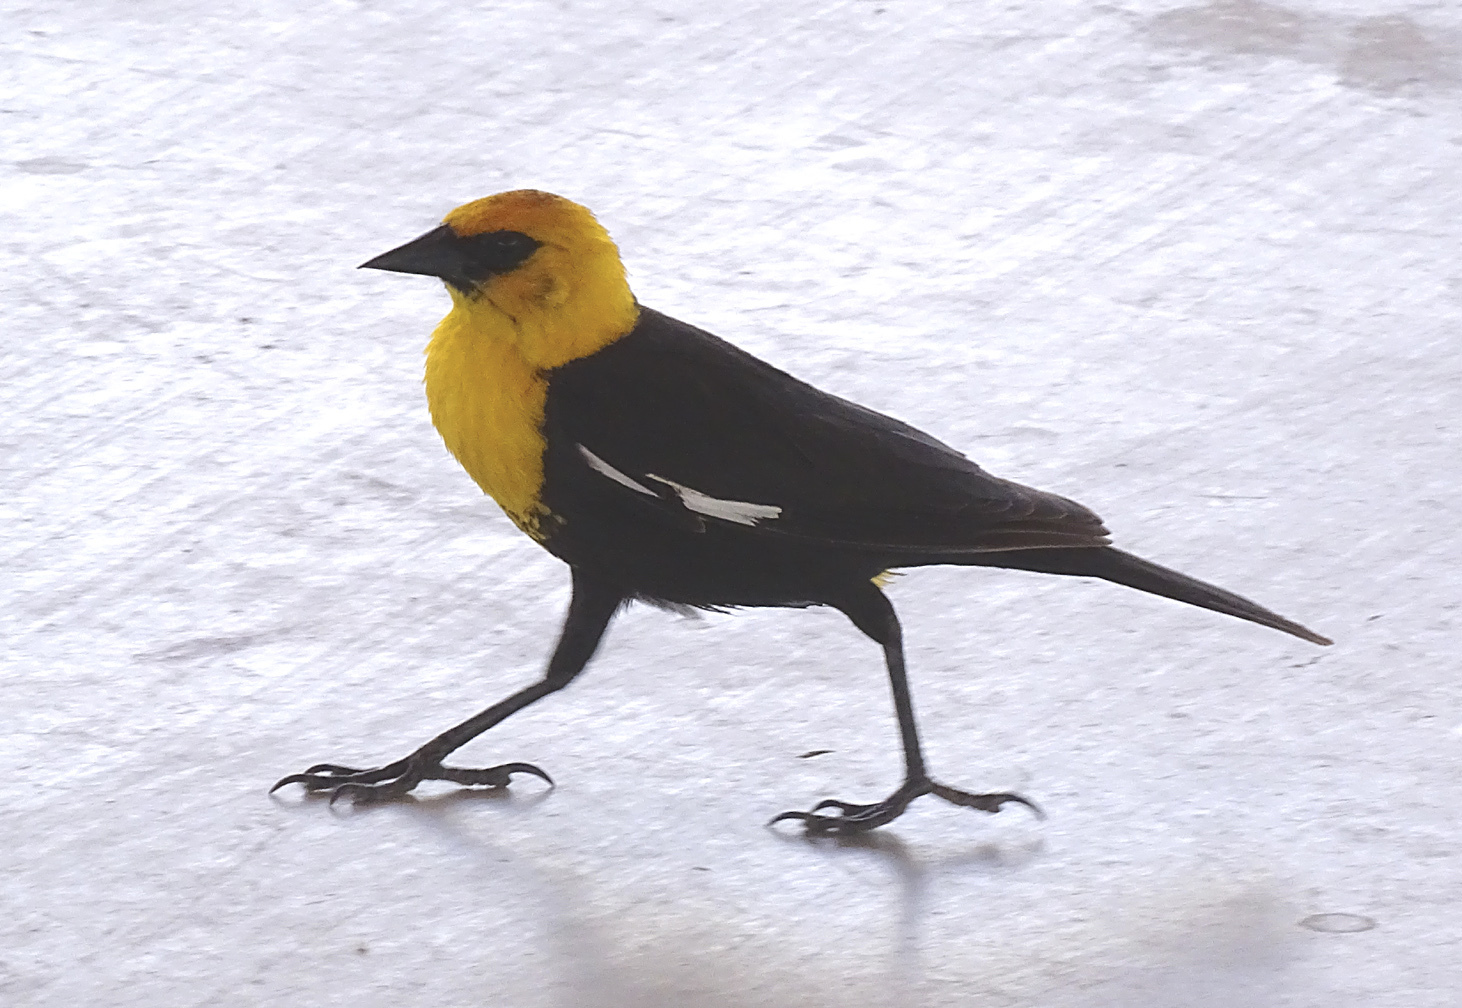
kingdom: Animalia
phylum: Chordata
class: Aves
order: Passeriformes
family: Icteridae
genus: Xanthocephalus
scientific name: Xanthocephalus xanthocephalus
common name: Yellow-headed blackbird
